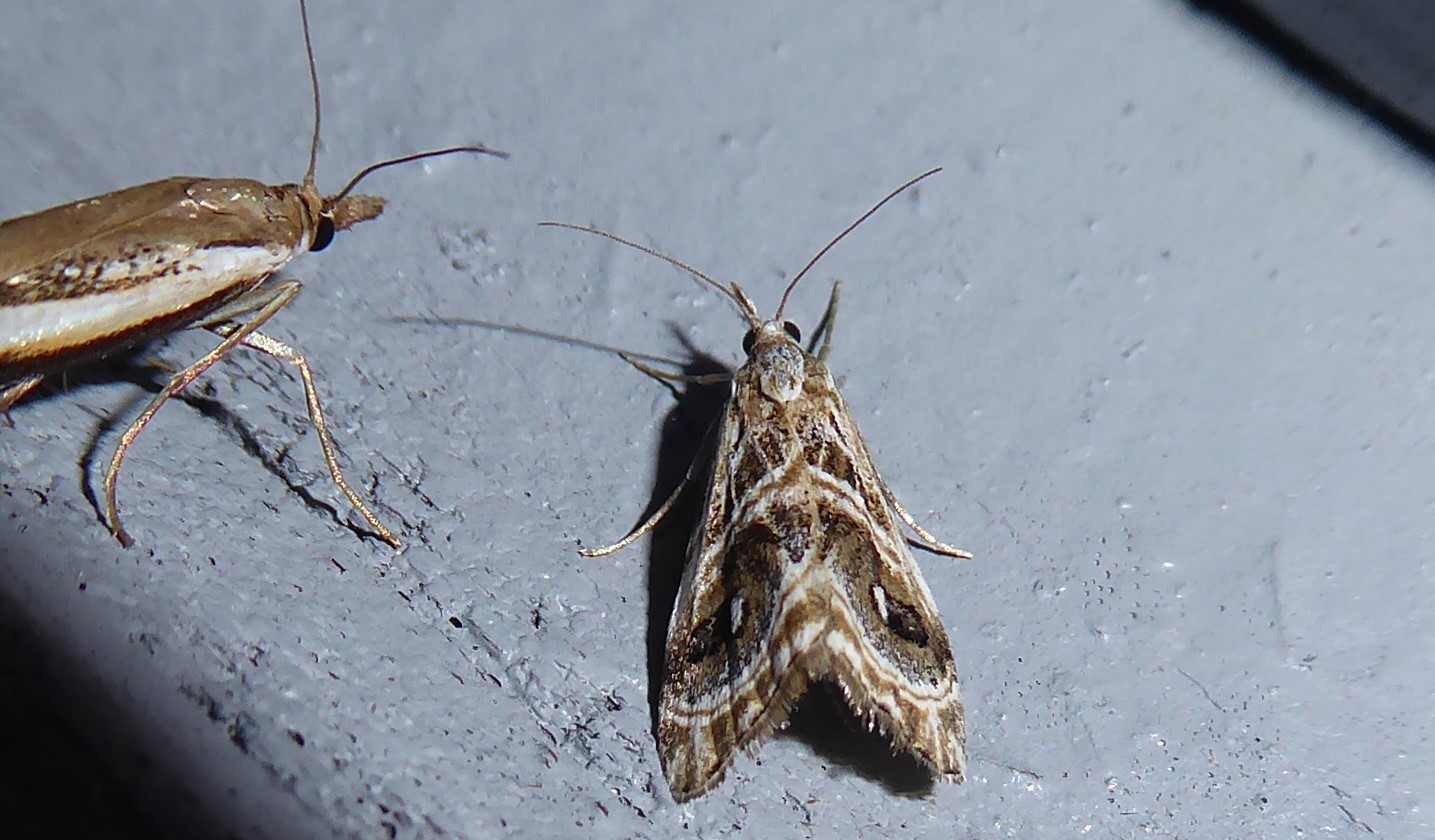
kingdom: Animalia
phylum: Arthropoda
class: Insecta
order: Lepidoptera
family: Crambidae
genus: Gadira
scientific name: Gadira acerella
